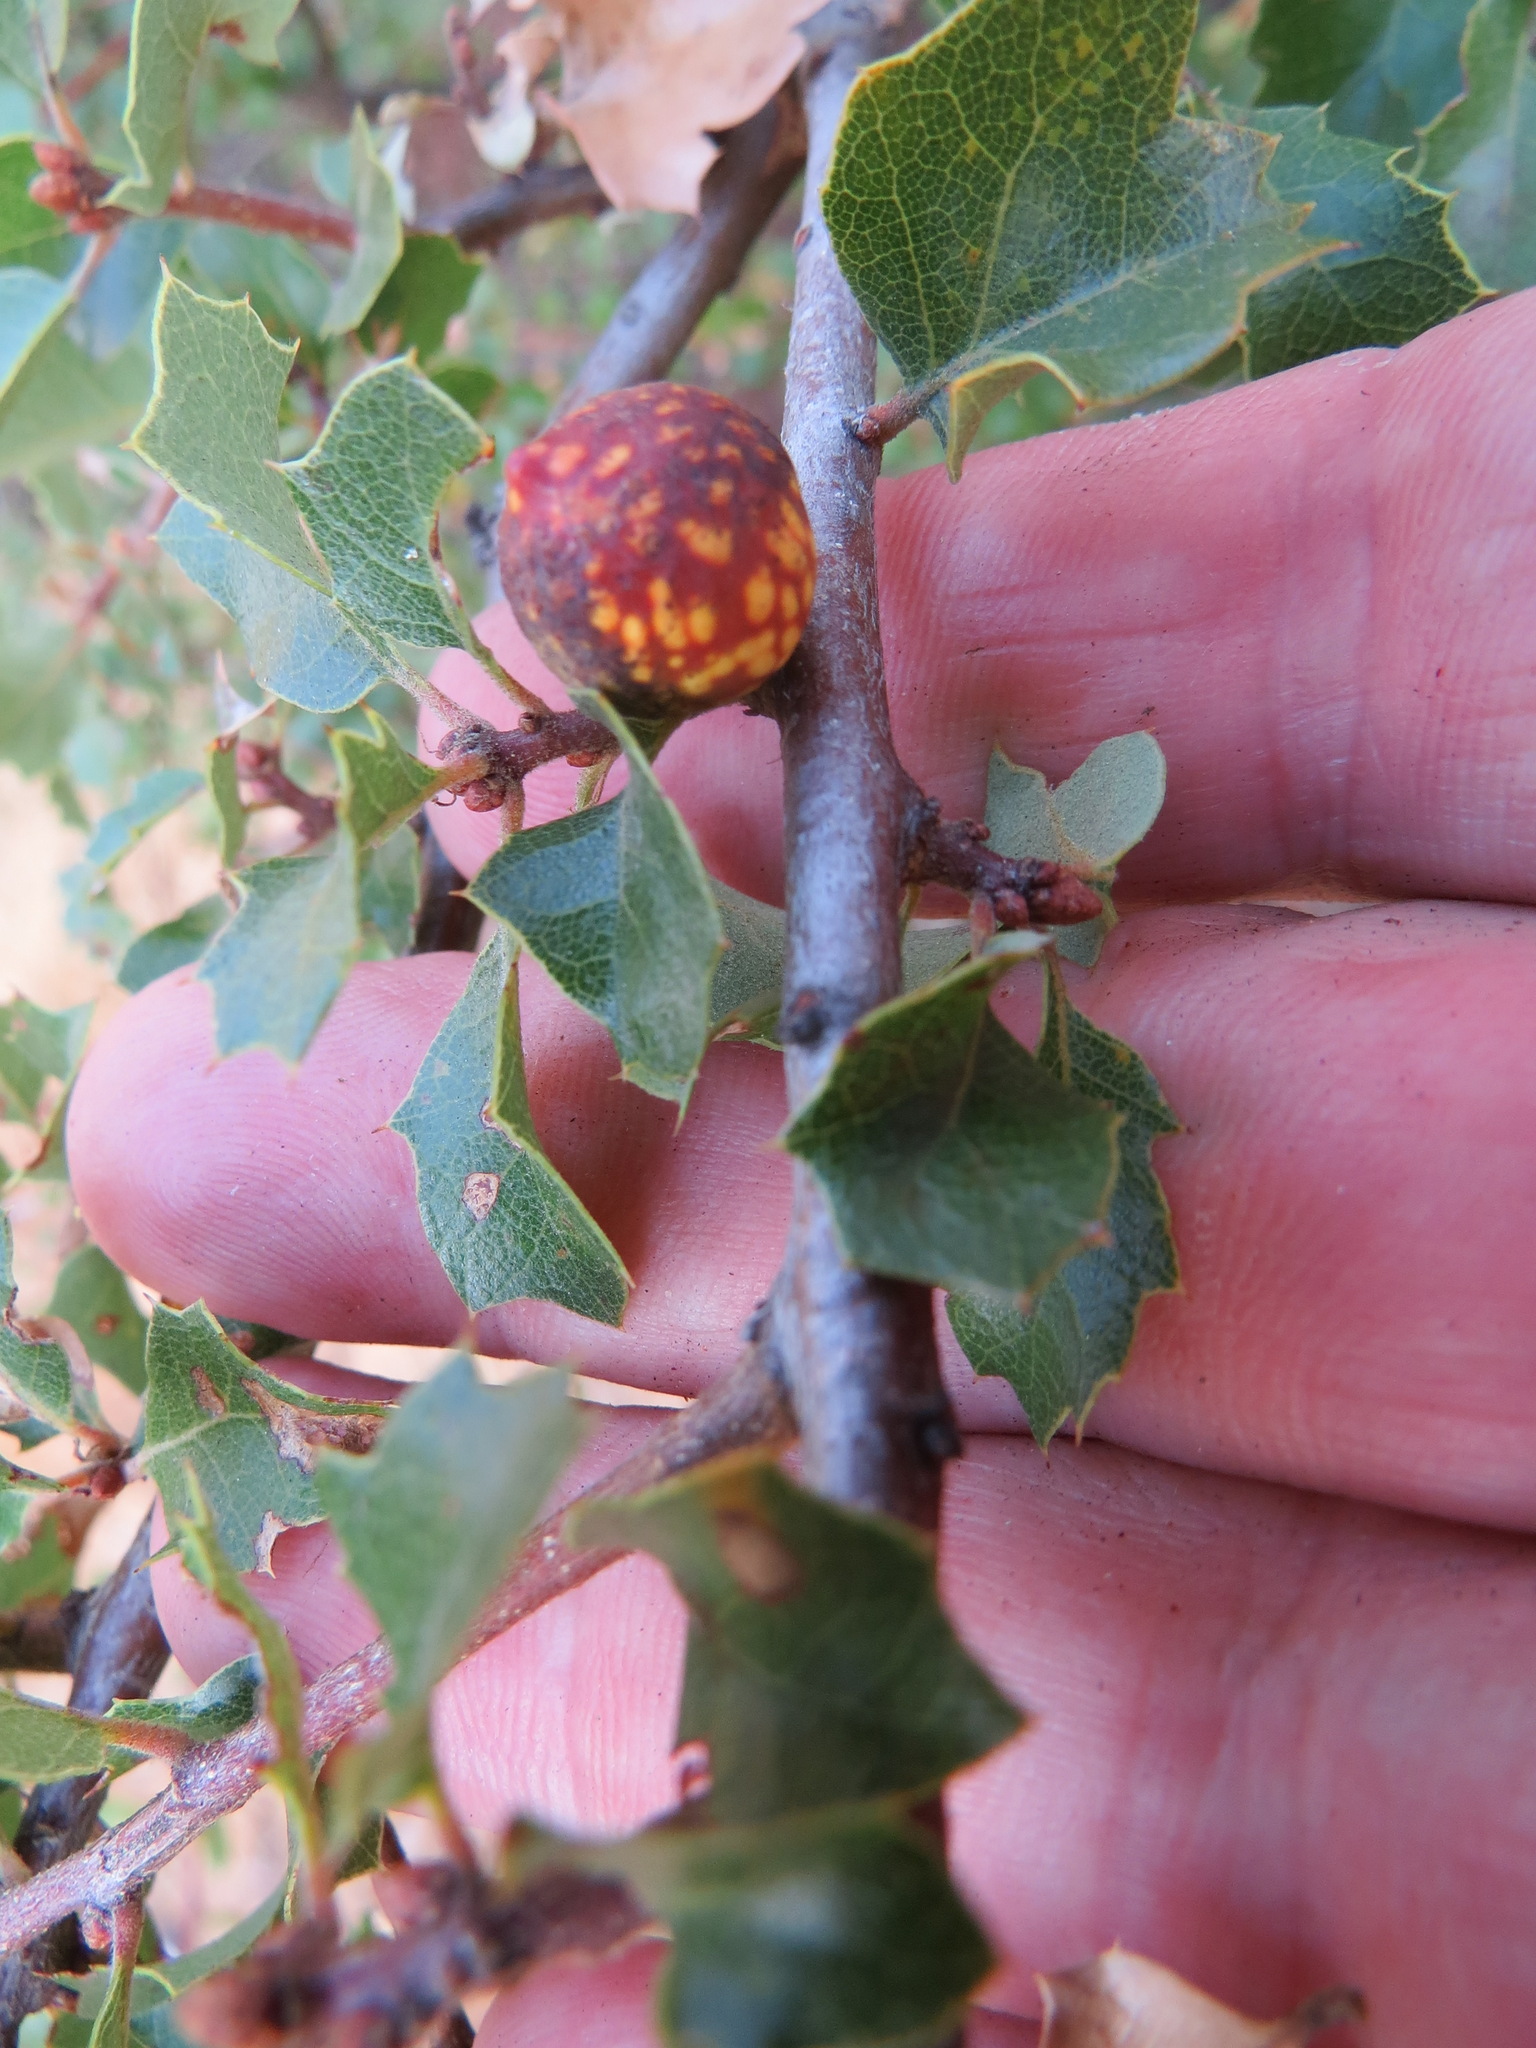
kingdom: Animalia
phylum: Arthropoda
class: Insecta
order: Hymenoptera
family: Cynipidae
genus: Burnettweldia
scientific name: Burnettweldia
